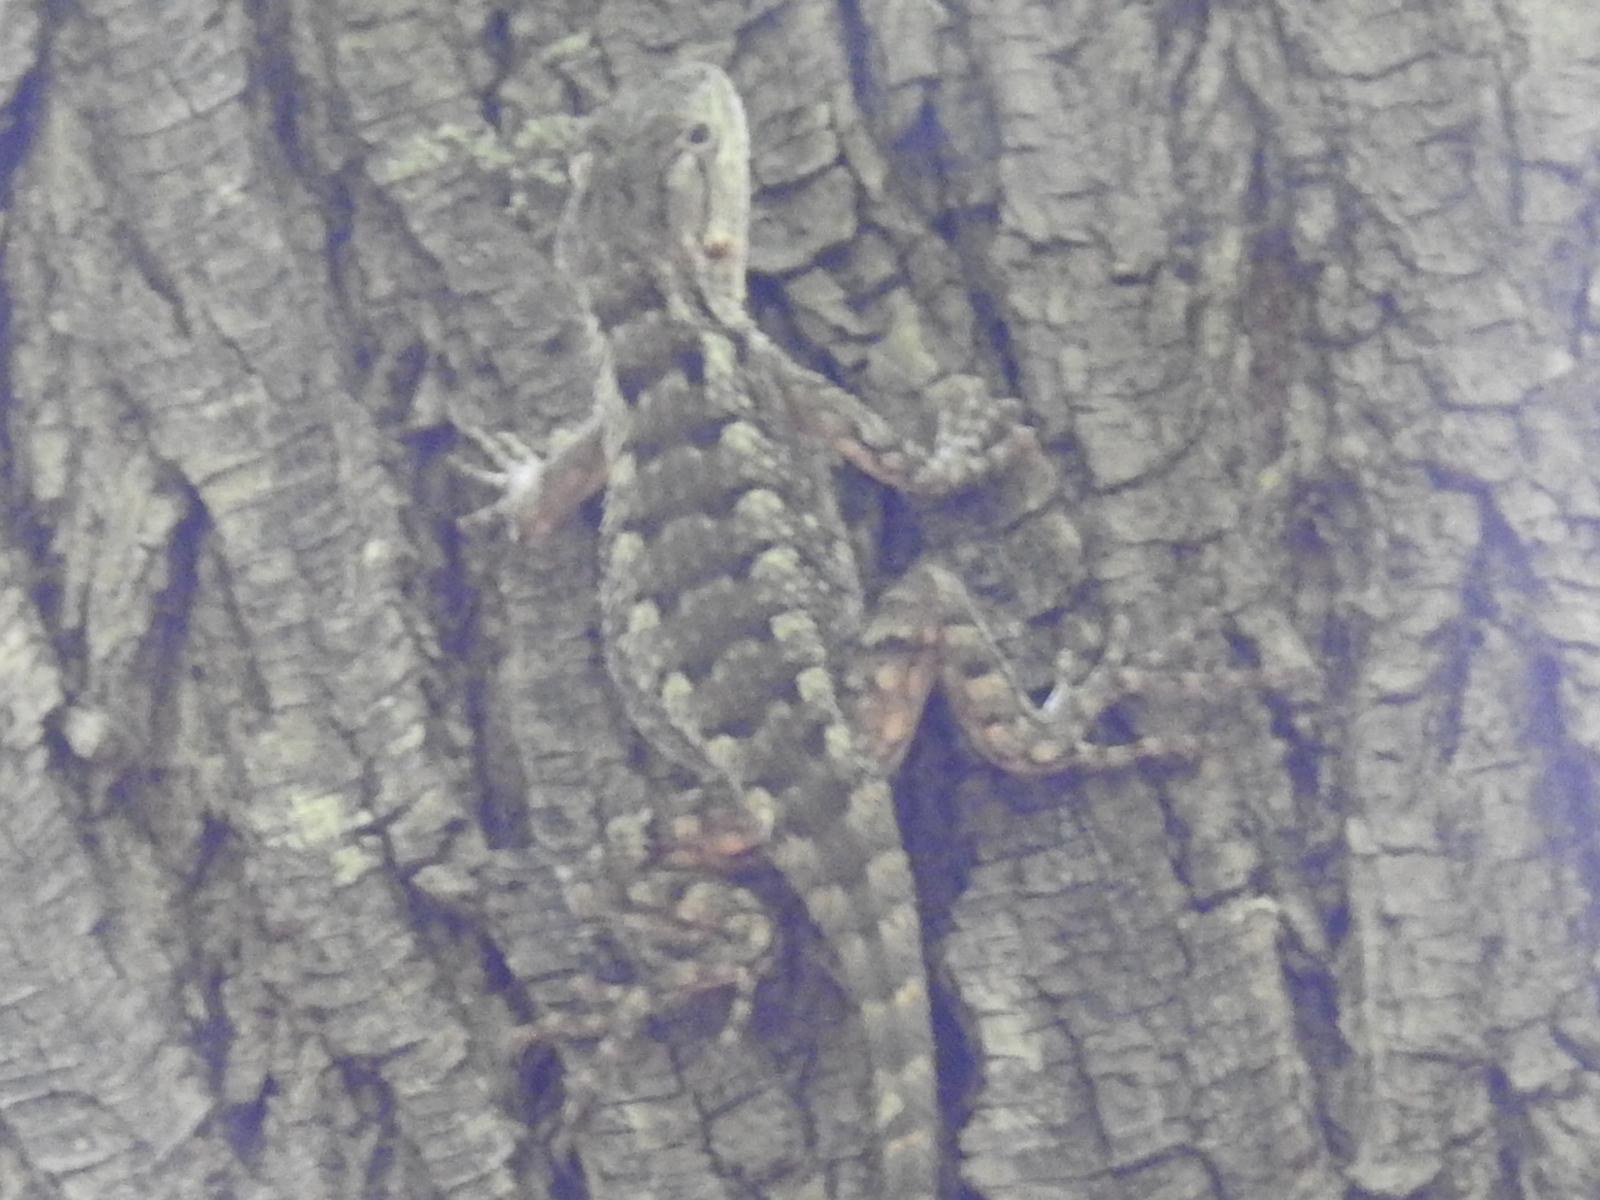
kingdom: Animalia
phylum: Chordata
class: Squamata
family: Phrynosomatidae
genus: Sceloporus
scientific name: Sceloporus olivaceus
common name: Texas spiny lizard
